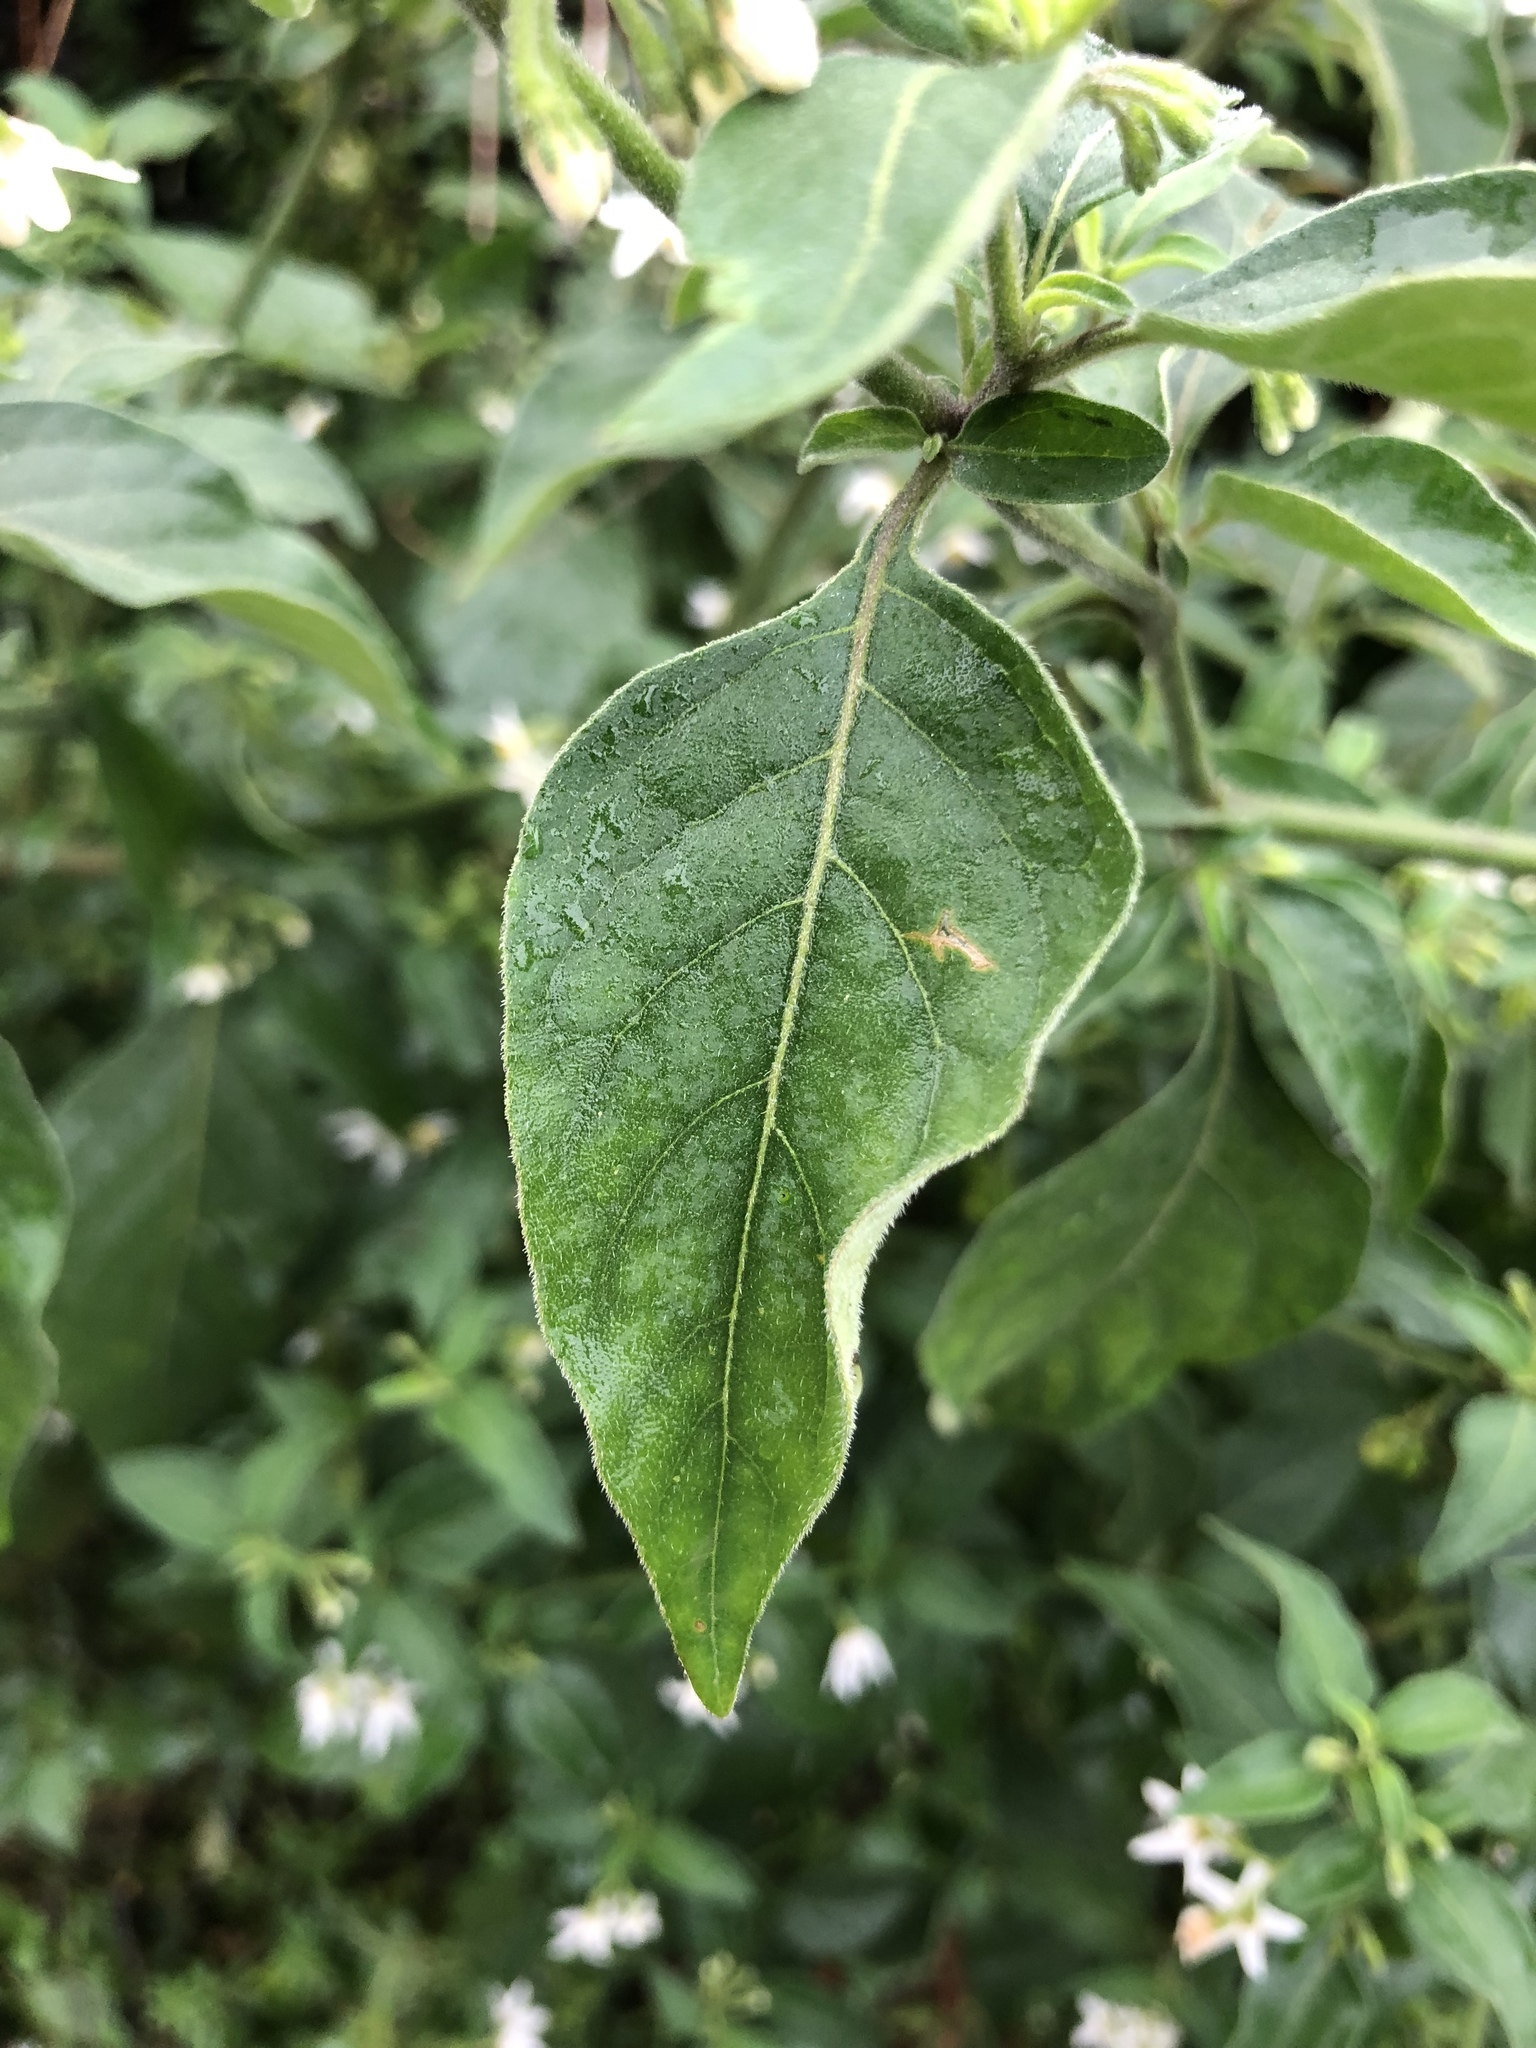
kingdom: Plantae
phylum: Tracheophyta
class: Magnoliopsida
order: Solanales
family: Solanaceae
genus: Solanum
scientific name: Solanum chenopodioides
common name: Tall nightshade
